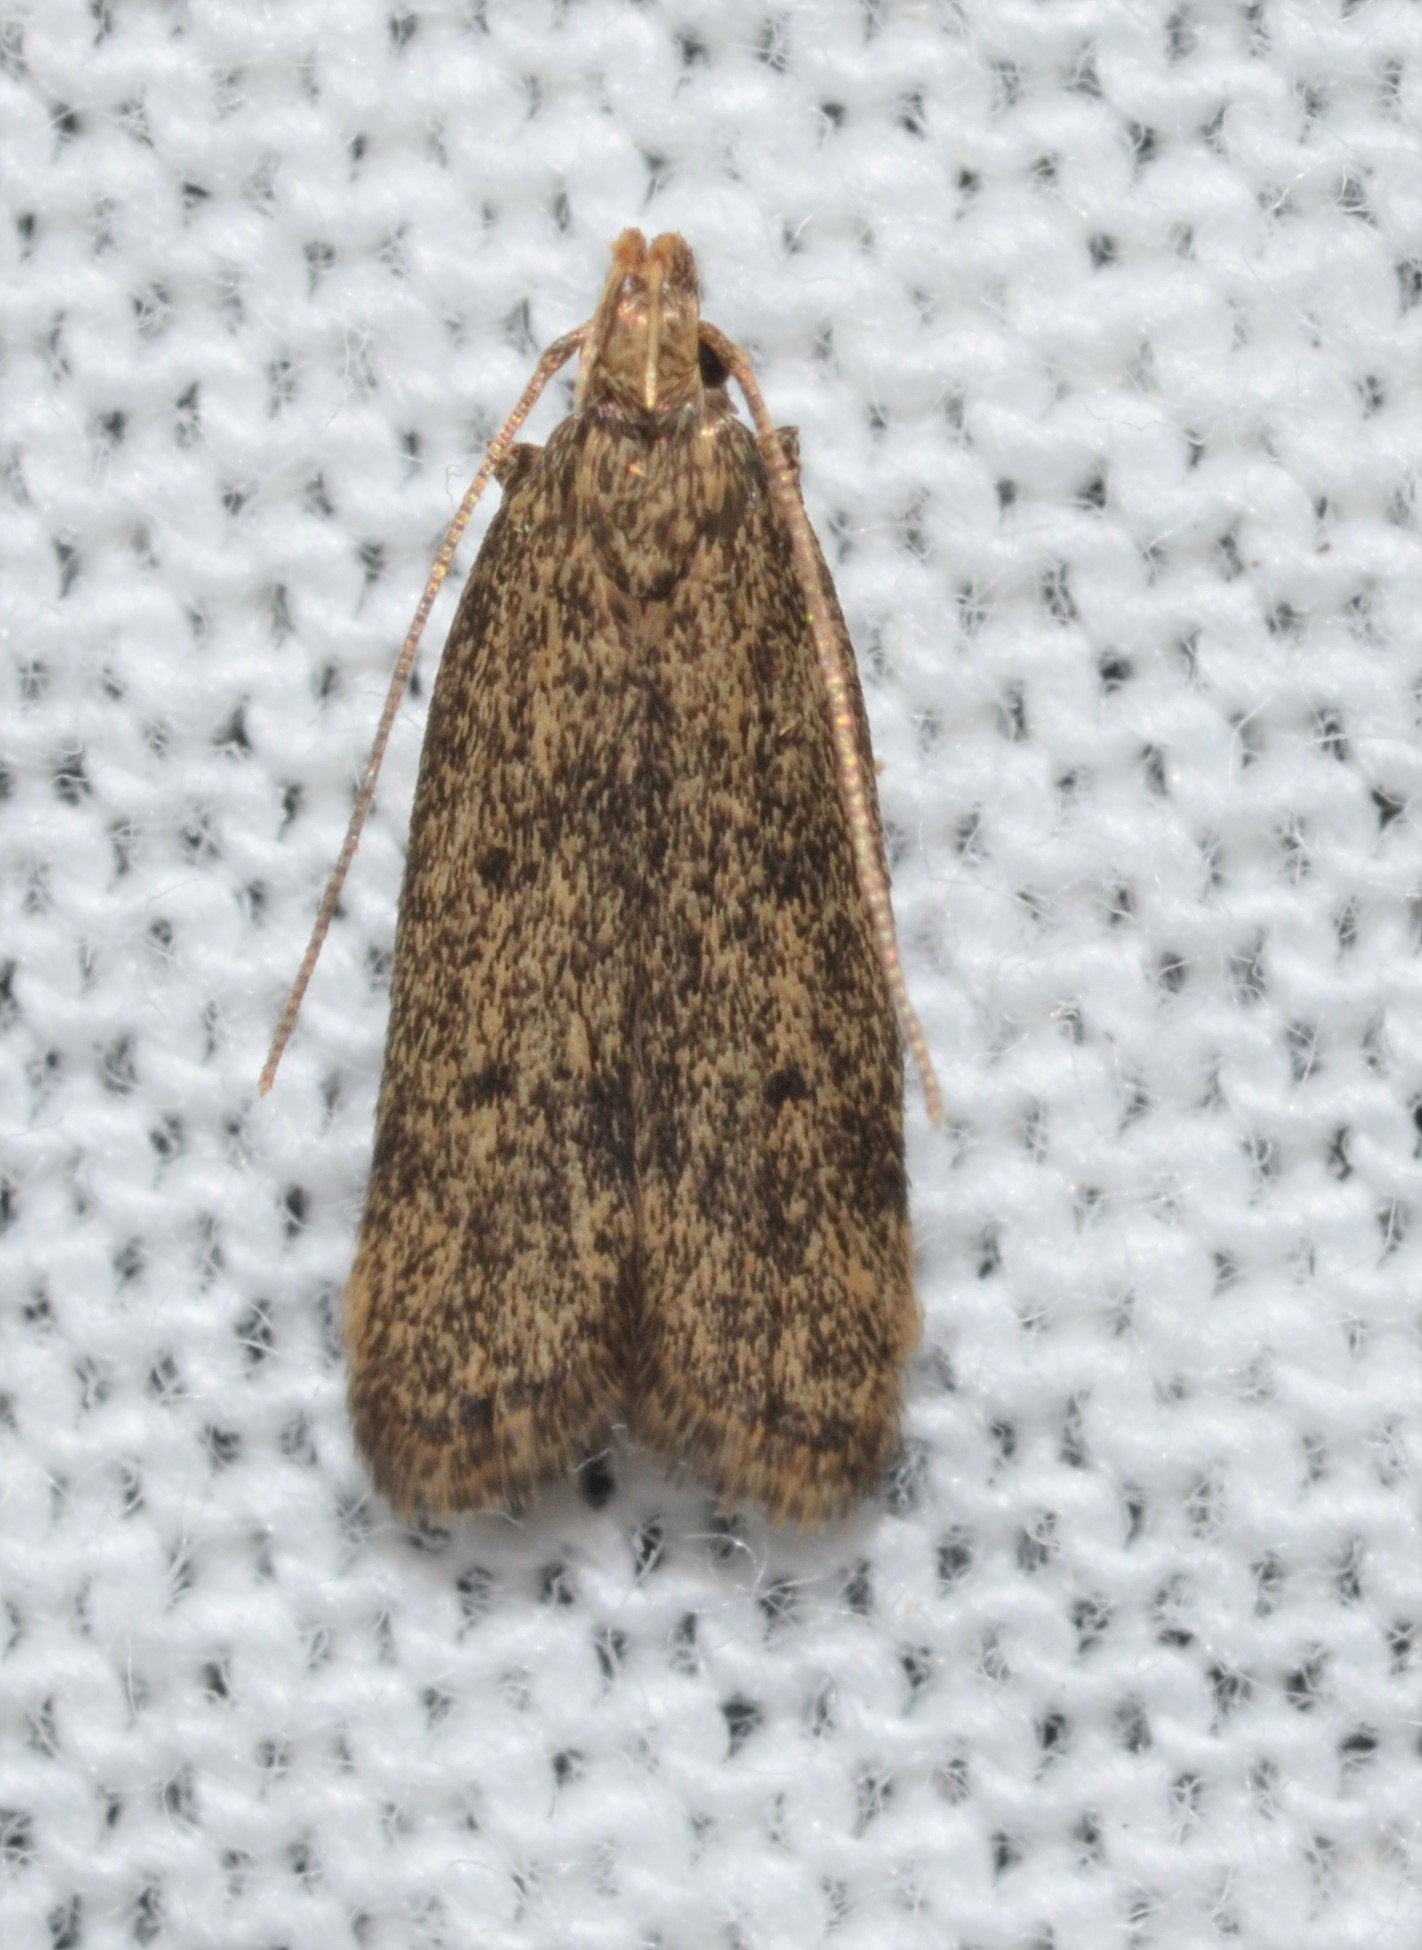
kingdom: Animalia
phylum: Arthropoda
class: Insecta
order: Lepidoptera
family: Autostichidae
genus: Glyphidocera
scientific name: Glyphidocera juniperella
